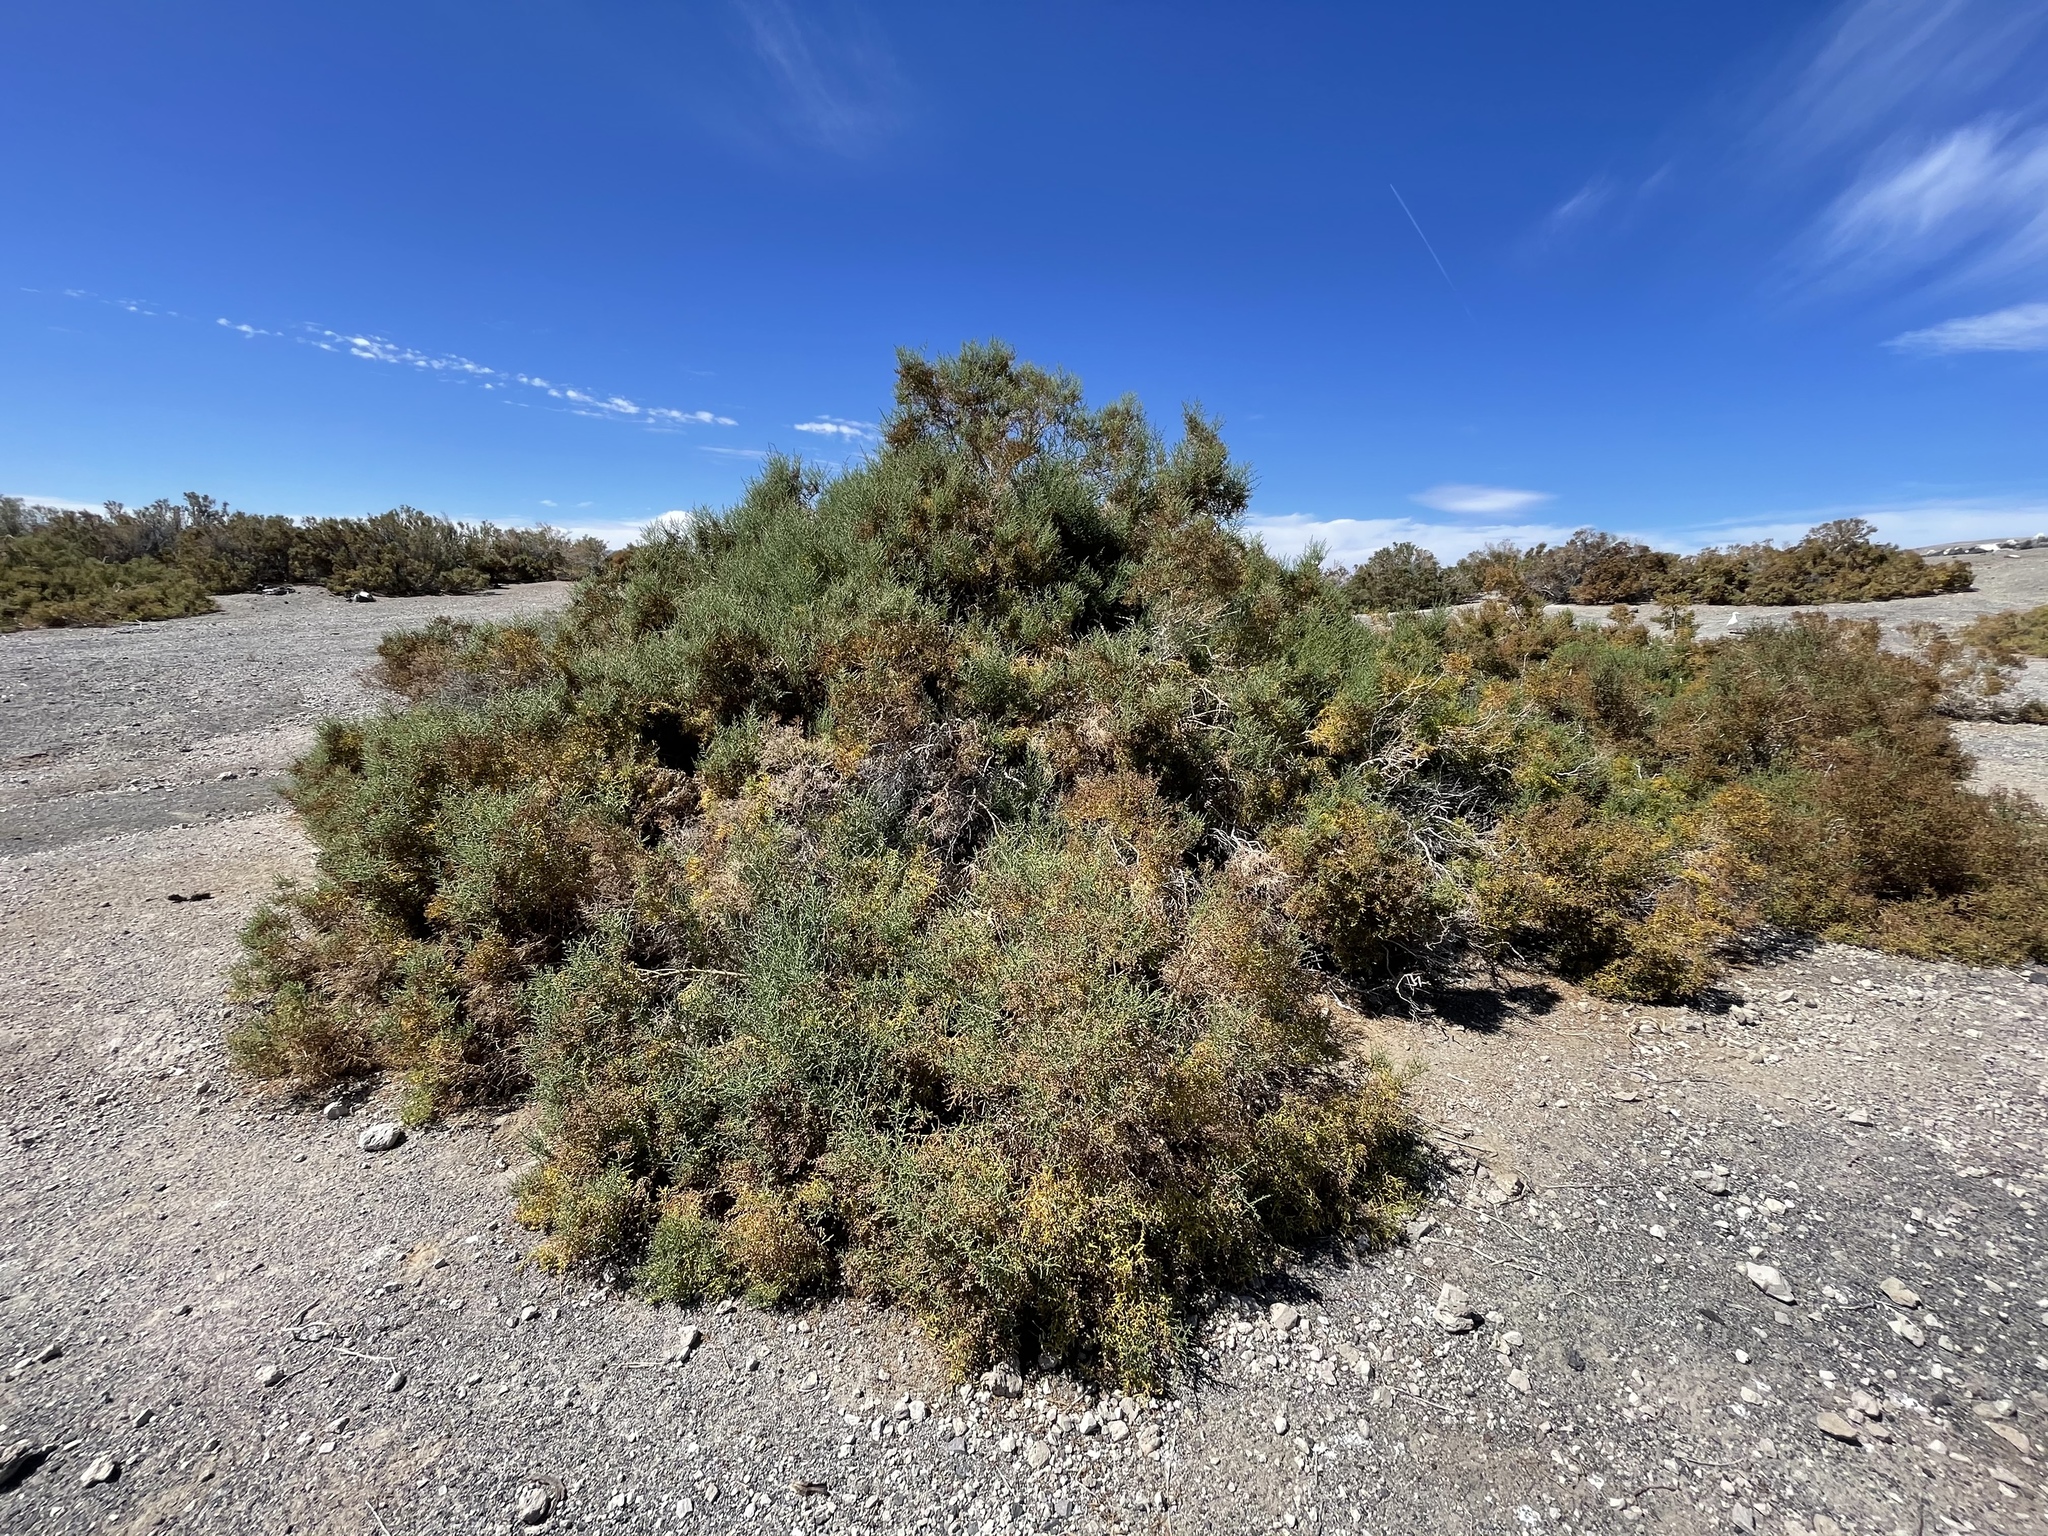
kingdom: Plantae
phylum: Tracheophyta
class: Magnoliopsida
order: Caryophyllales
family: Amaranthaceae
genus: Allenrolfea
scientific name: Allenrolfea occidentalis
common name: Iodine-bush
